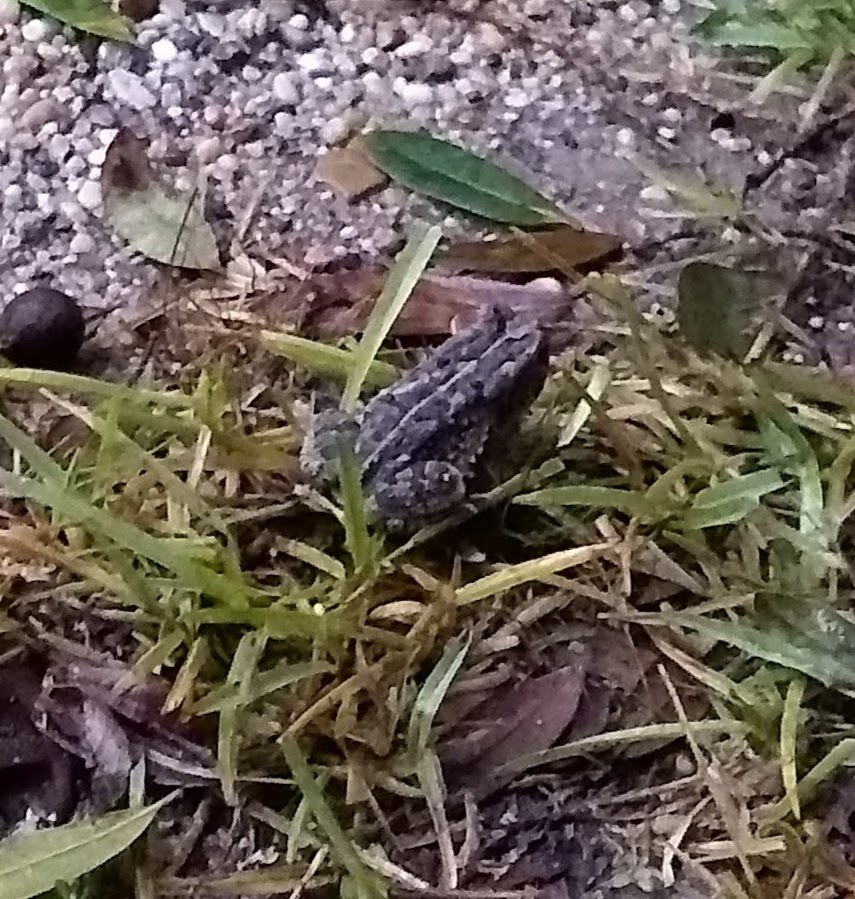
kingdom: Animalia
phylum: Chordata
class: Amphibia
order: Anura
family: Bufonidae
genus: Anaxyrus
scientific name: Anaxyrus fowleri
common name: Fowler's toad
